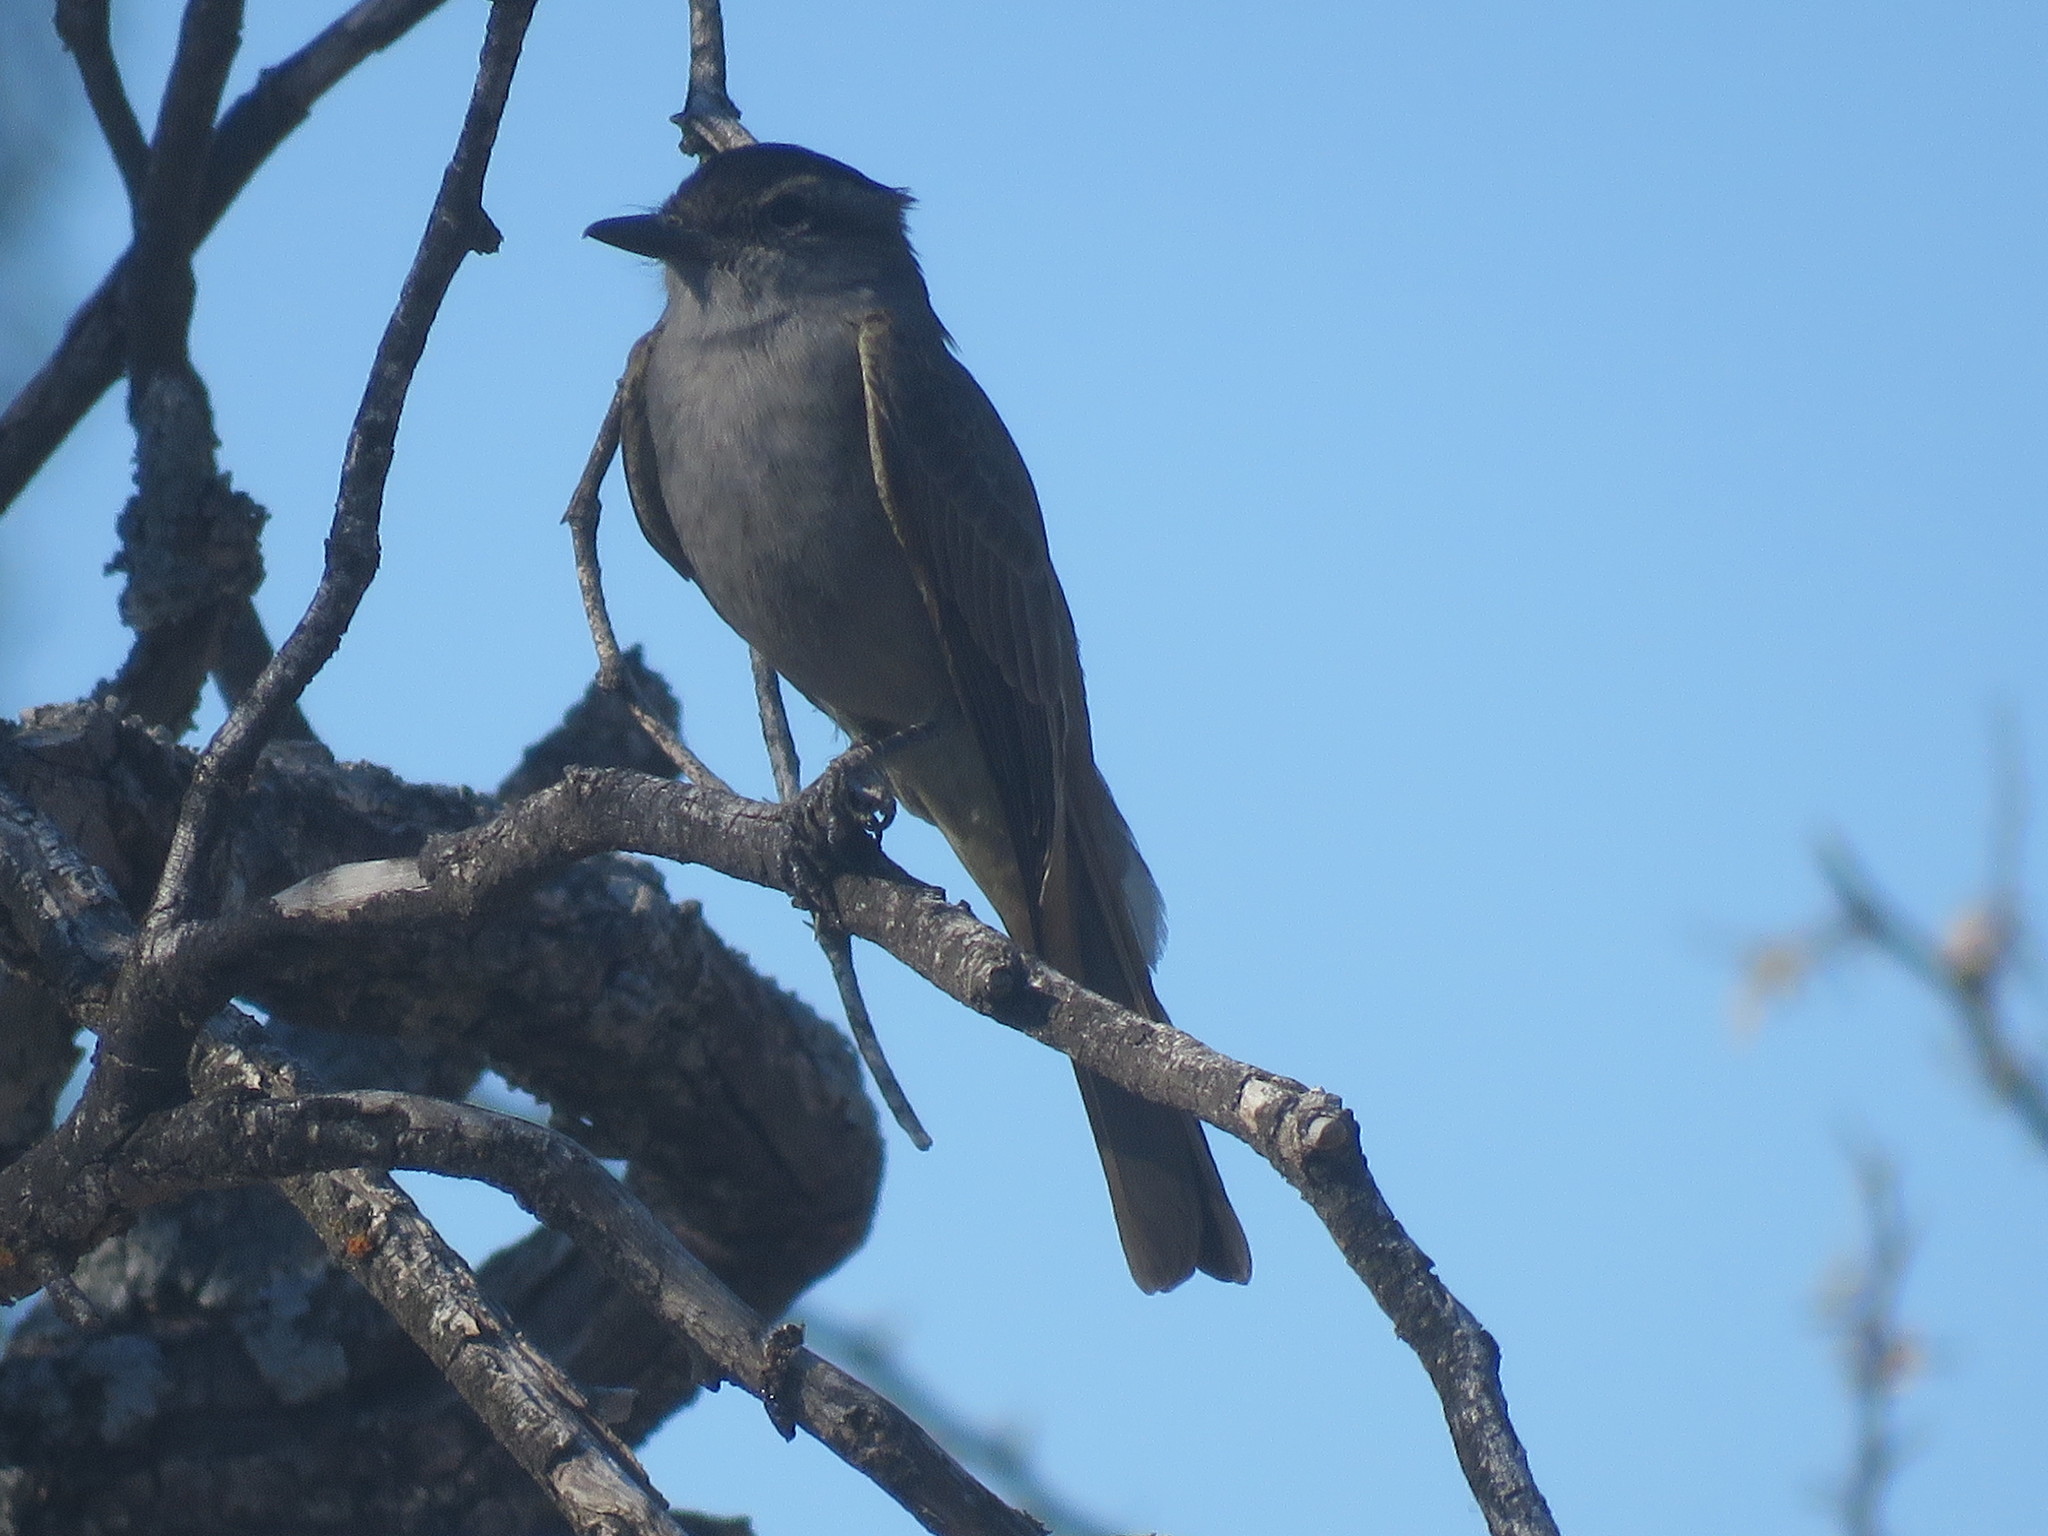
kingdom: Animalia
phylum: Chordata
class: Aves
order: Passeriformes
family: Tyrannidae
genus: Empidonomus
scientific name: Empidonomus aurantioatrocristatus
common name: Crowned slaty flycatcher
